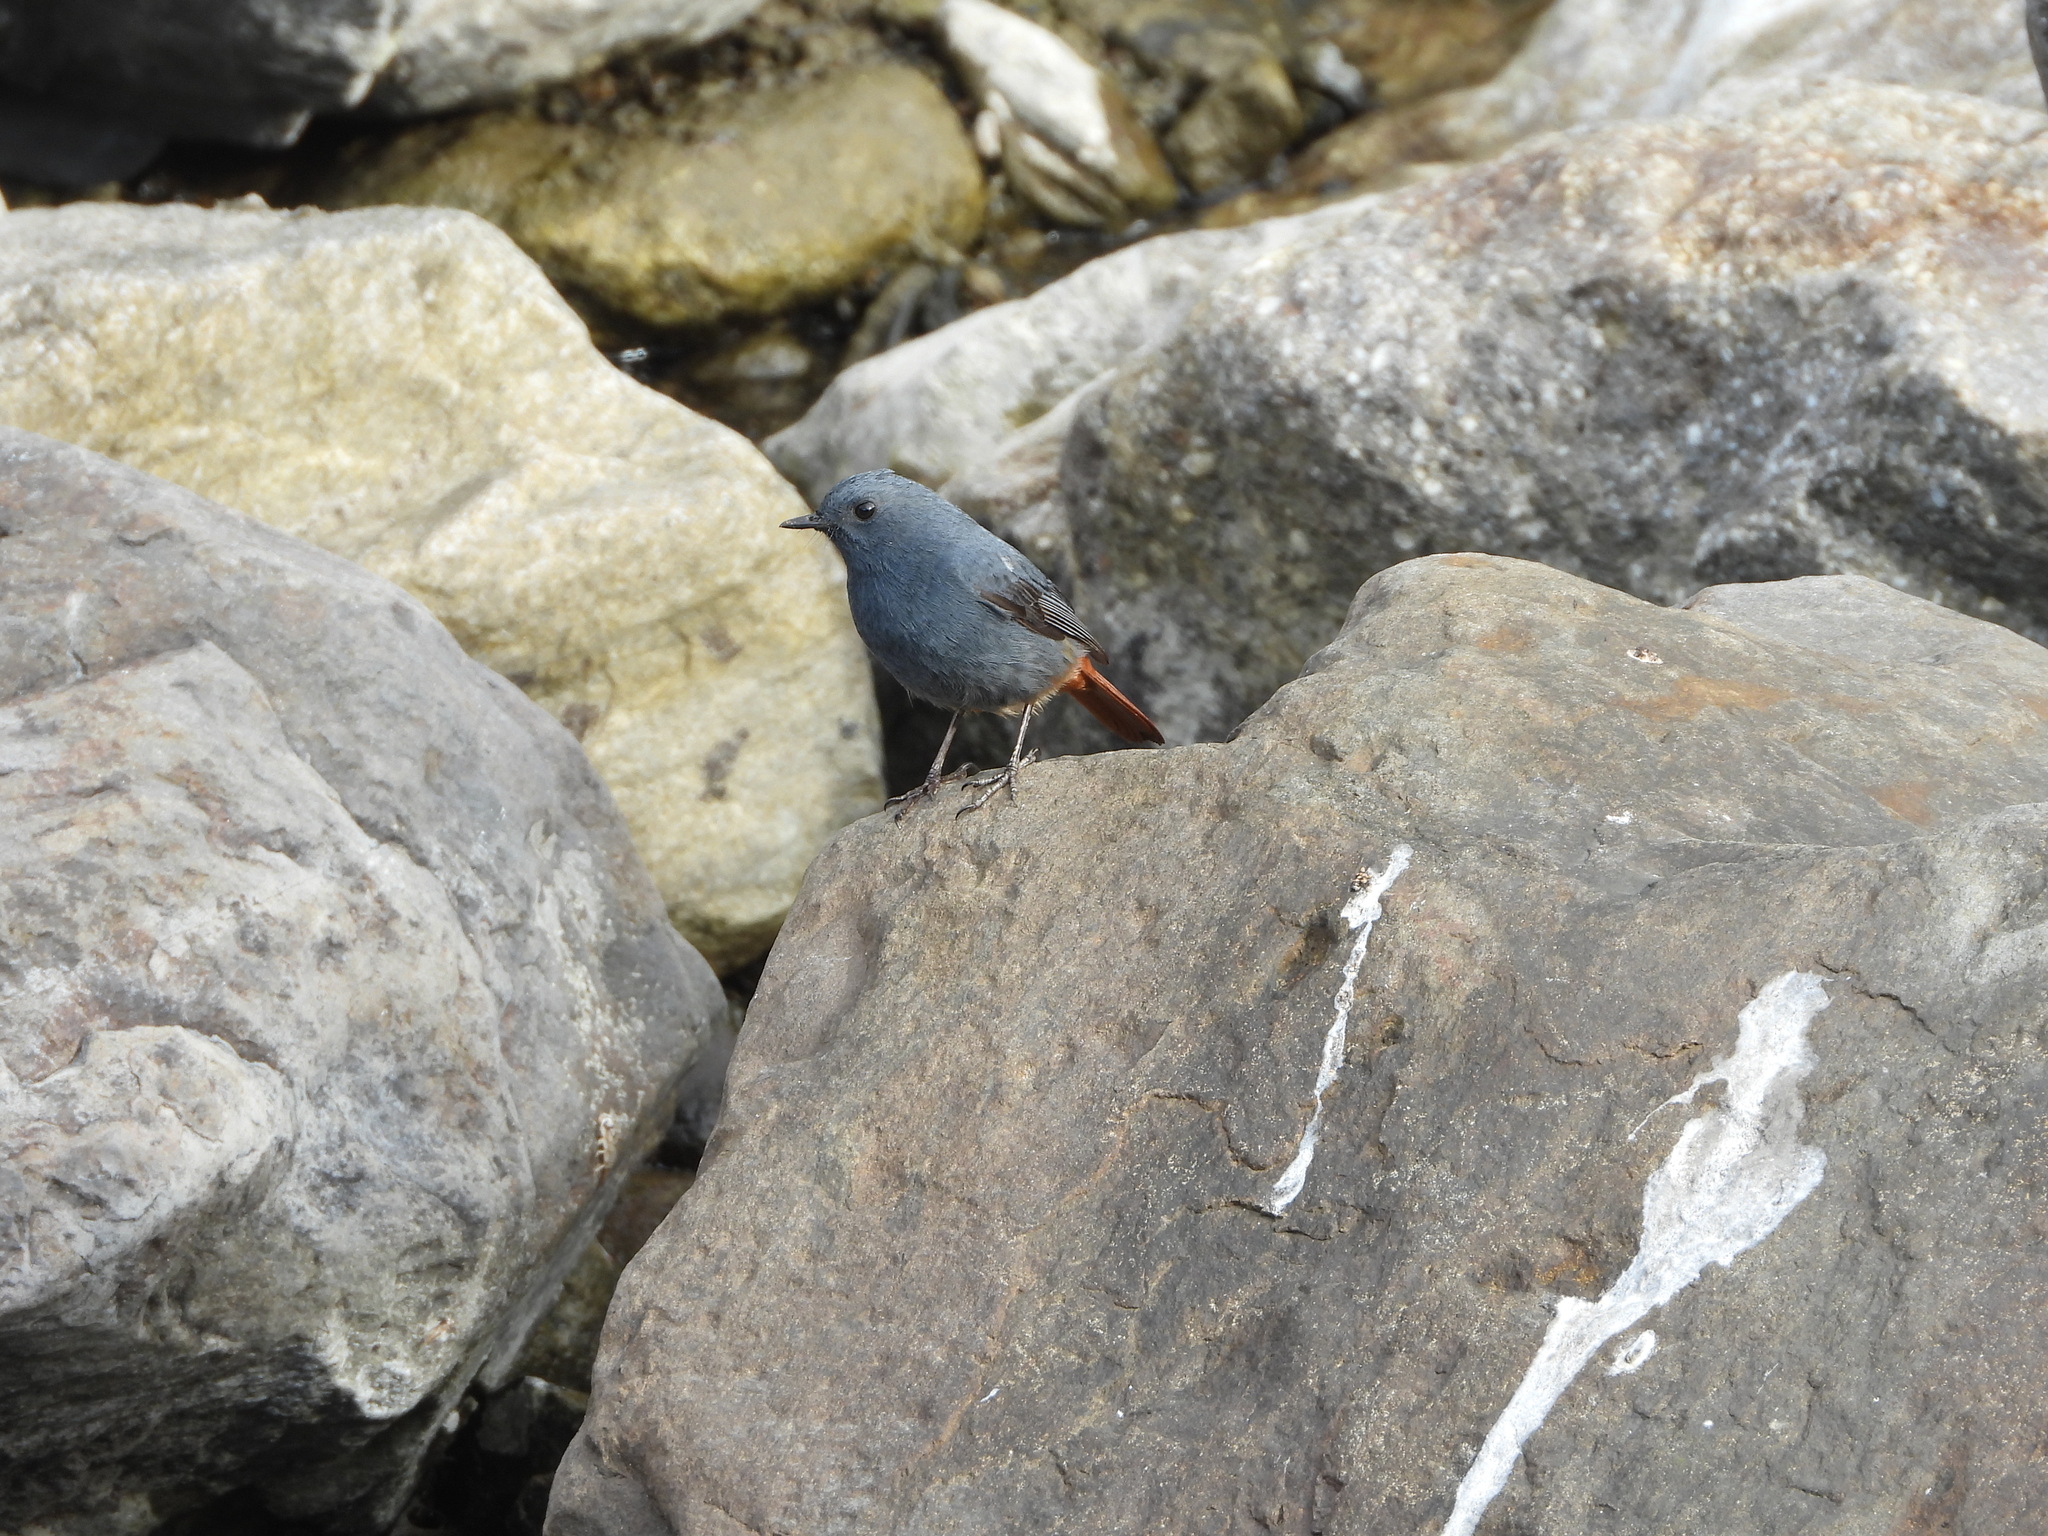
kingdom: Animalia
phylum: Chordata
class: Aves
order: Passeriformes
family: Muscicapidae
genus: Phoenicurus
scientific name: Phoenicurus fuliginosus
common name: Plumbeous water redstart
